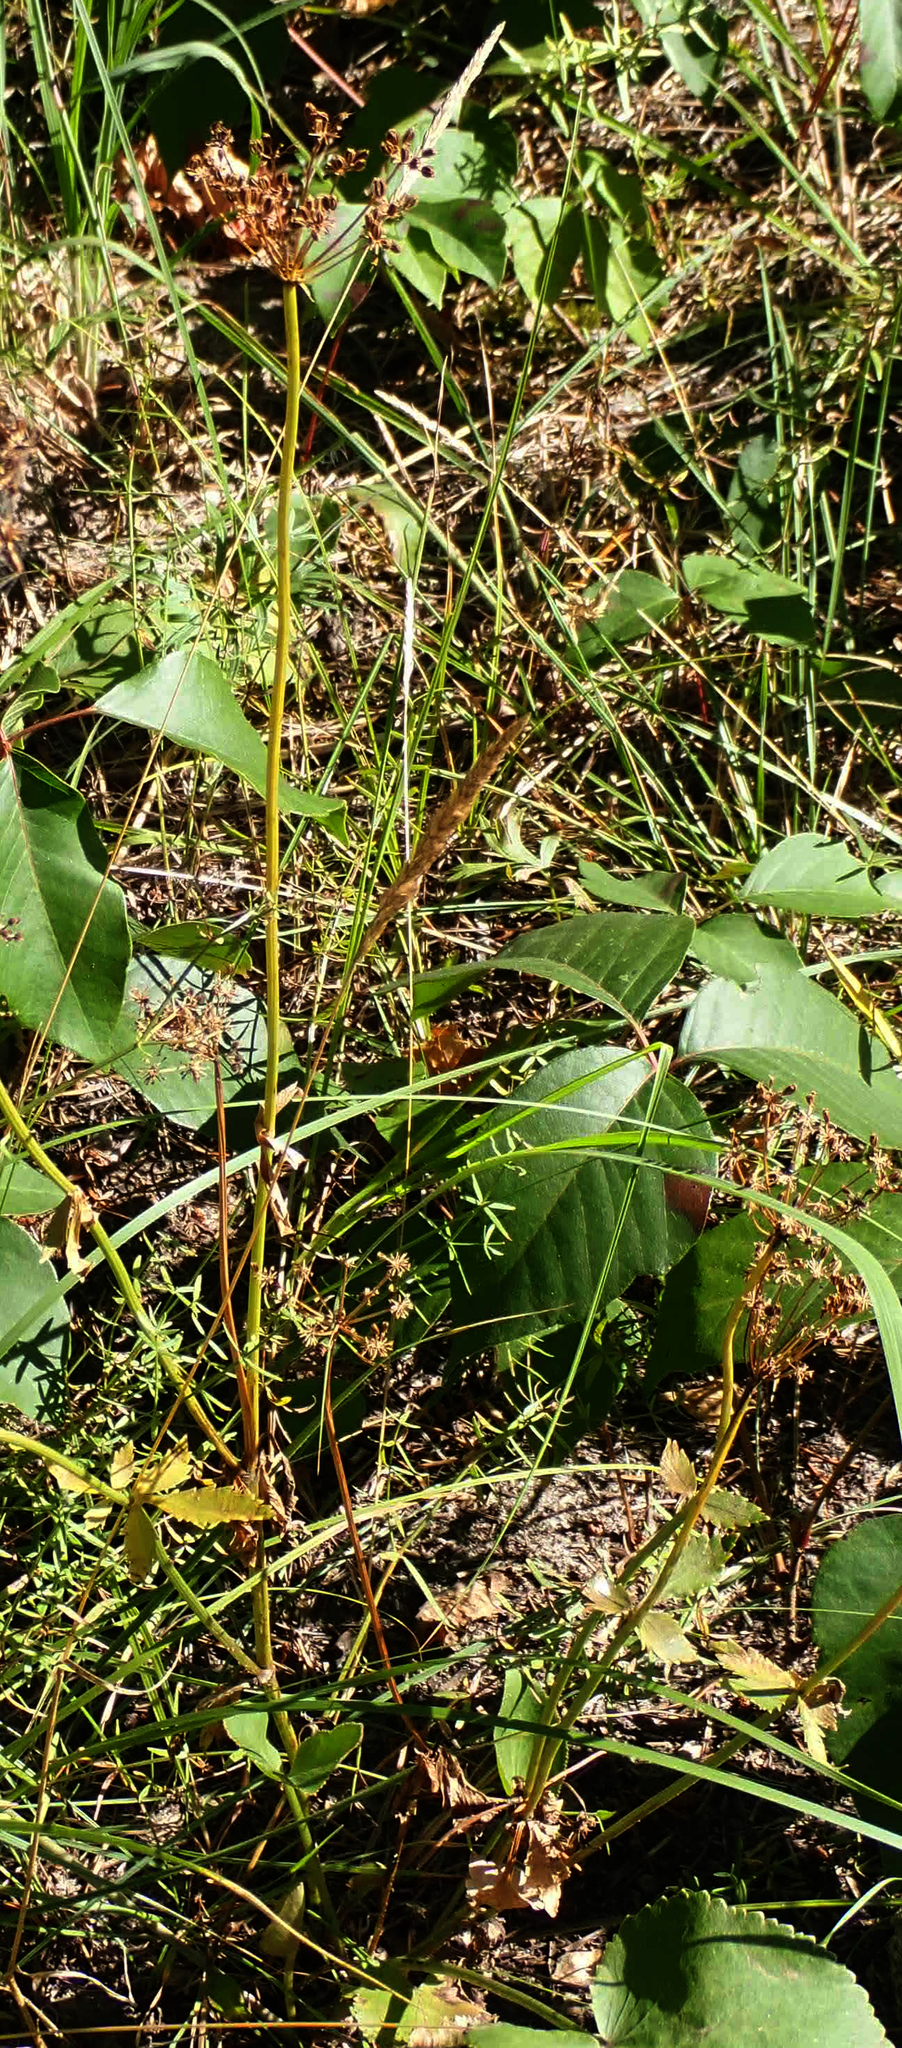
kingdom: Plantae
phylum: Tracheophyta
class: Magnoliopsida
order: Apiales
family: Apiaceae
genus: Zizia
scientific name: Zizia aptera
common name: Heart-leaved alexanders
